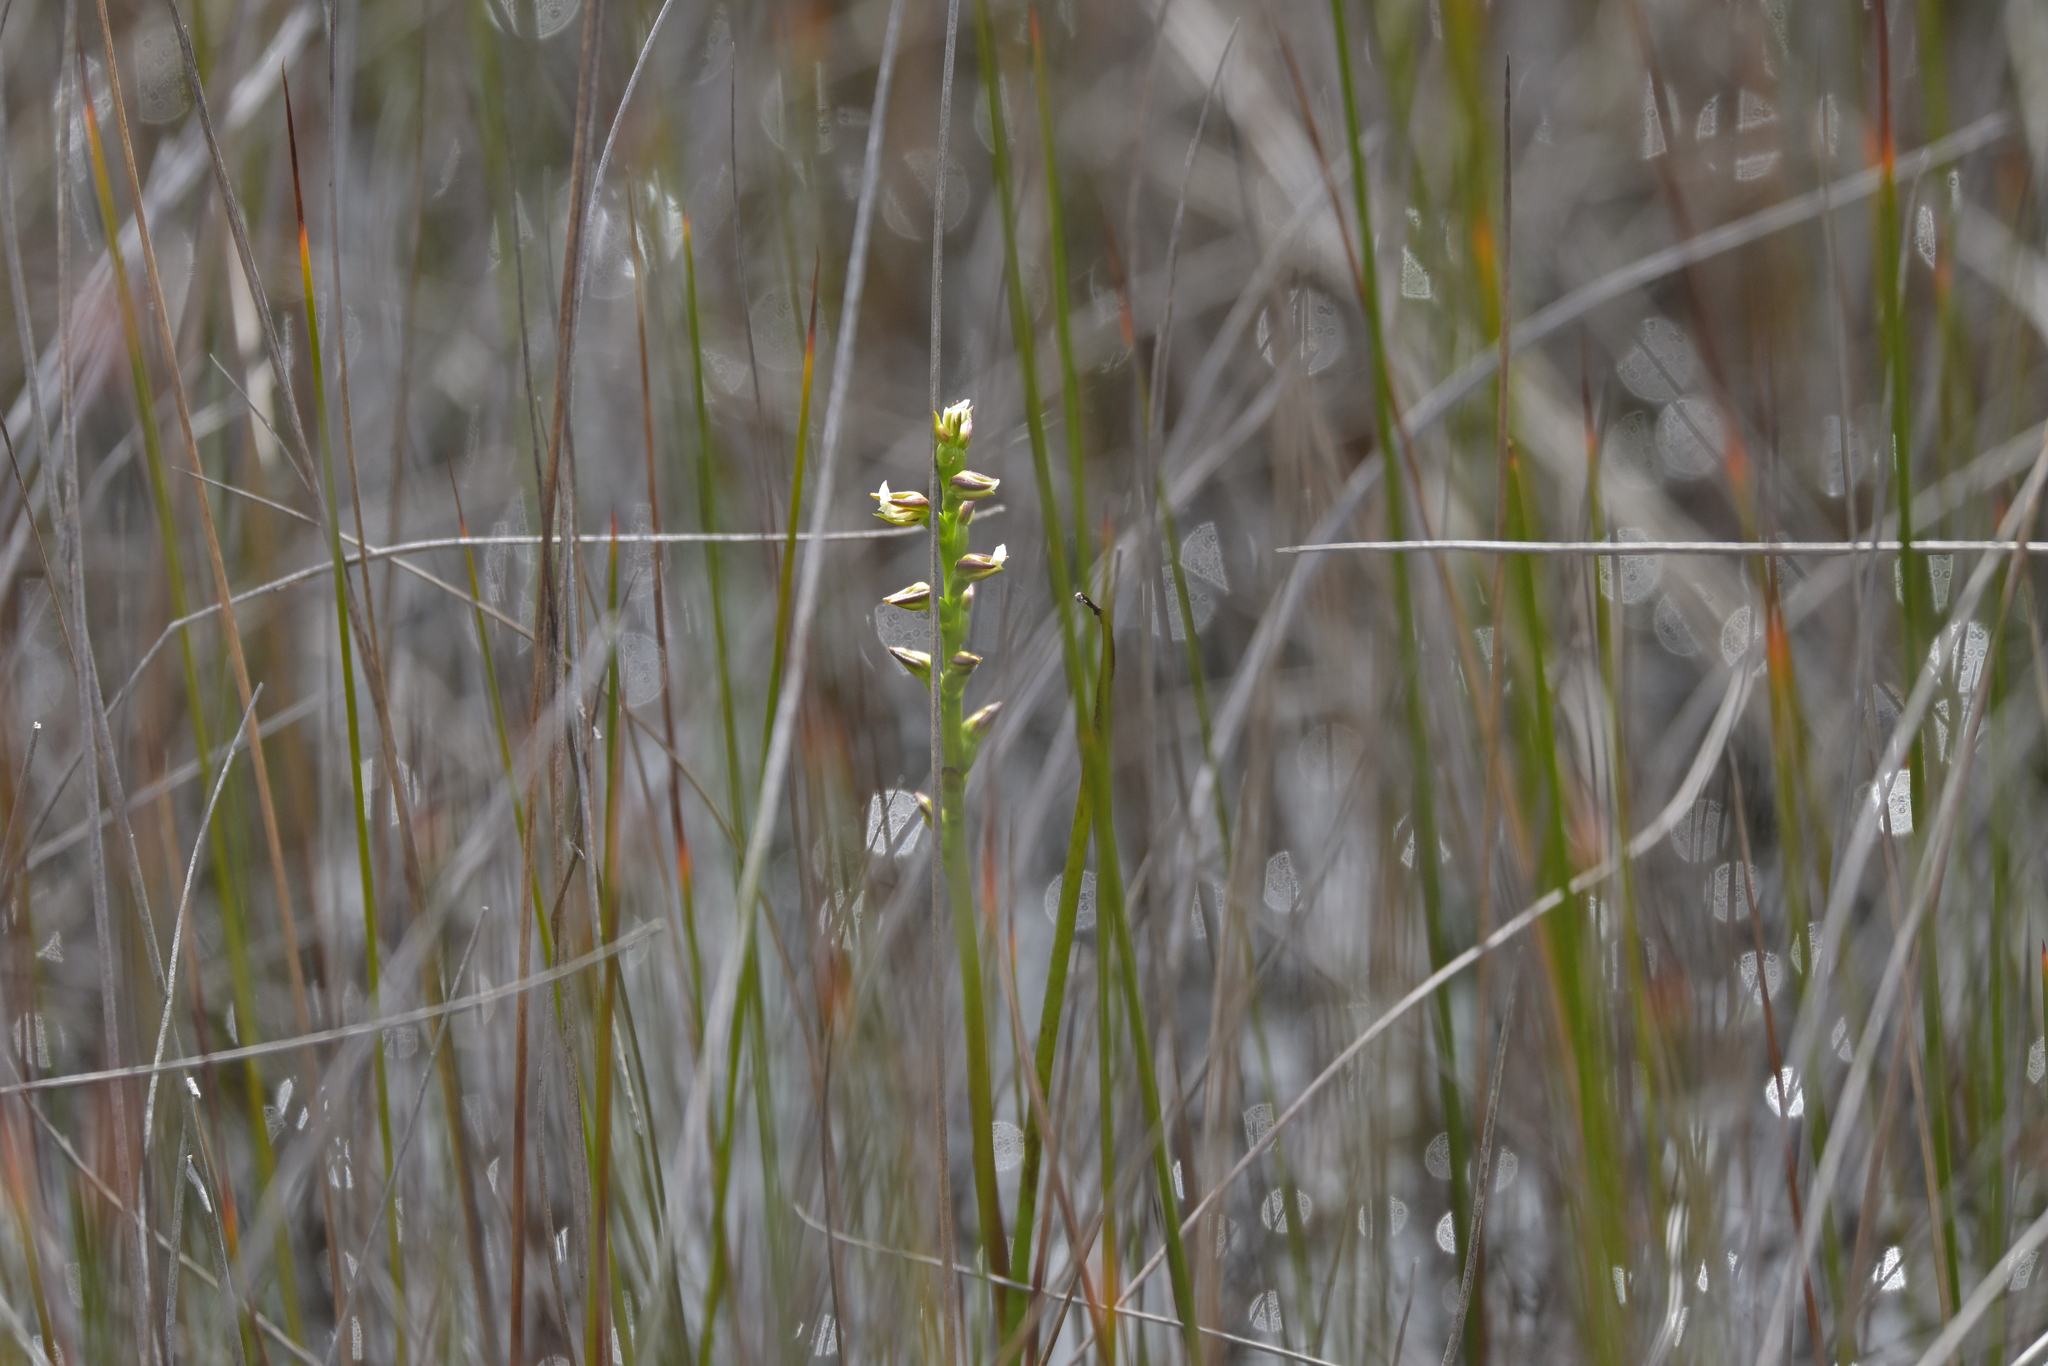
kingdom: Plantae
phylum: Tracheophyta
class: Liliopsida
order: Asparagales
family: Orchidaceae
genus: Prasophyllum
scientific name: Prasophyllum hectorii
